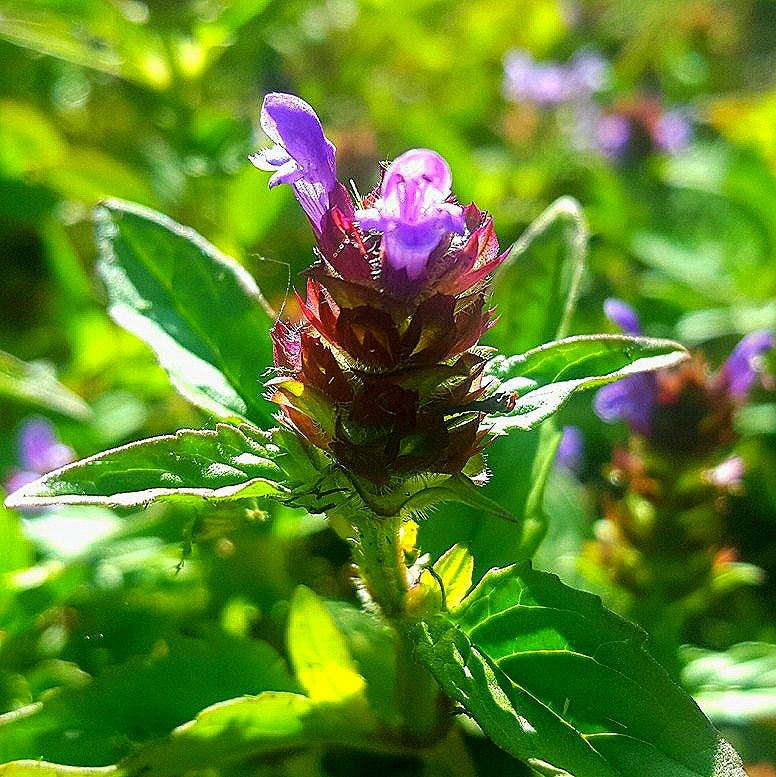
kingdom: Plantae
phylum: Tracheophyta
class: Magnoliopsida
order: Lamiales
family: Lamiaceae
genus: Prunella
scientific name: Prunella vulgaris
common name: Heal-all
